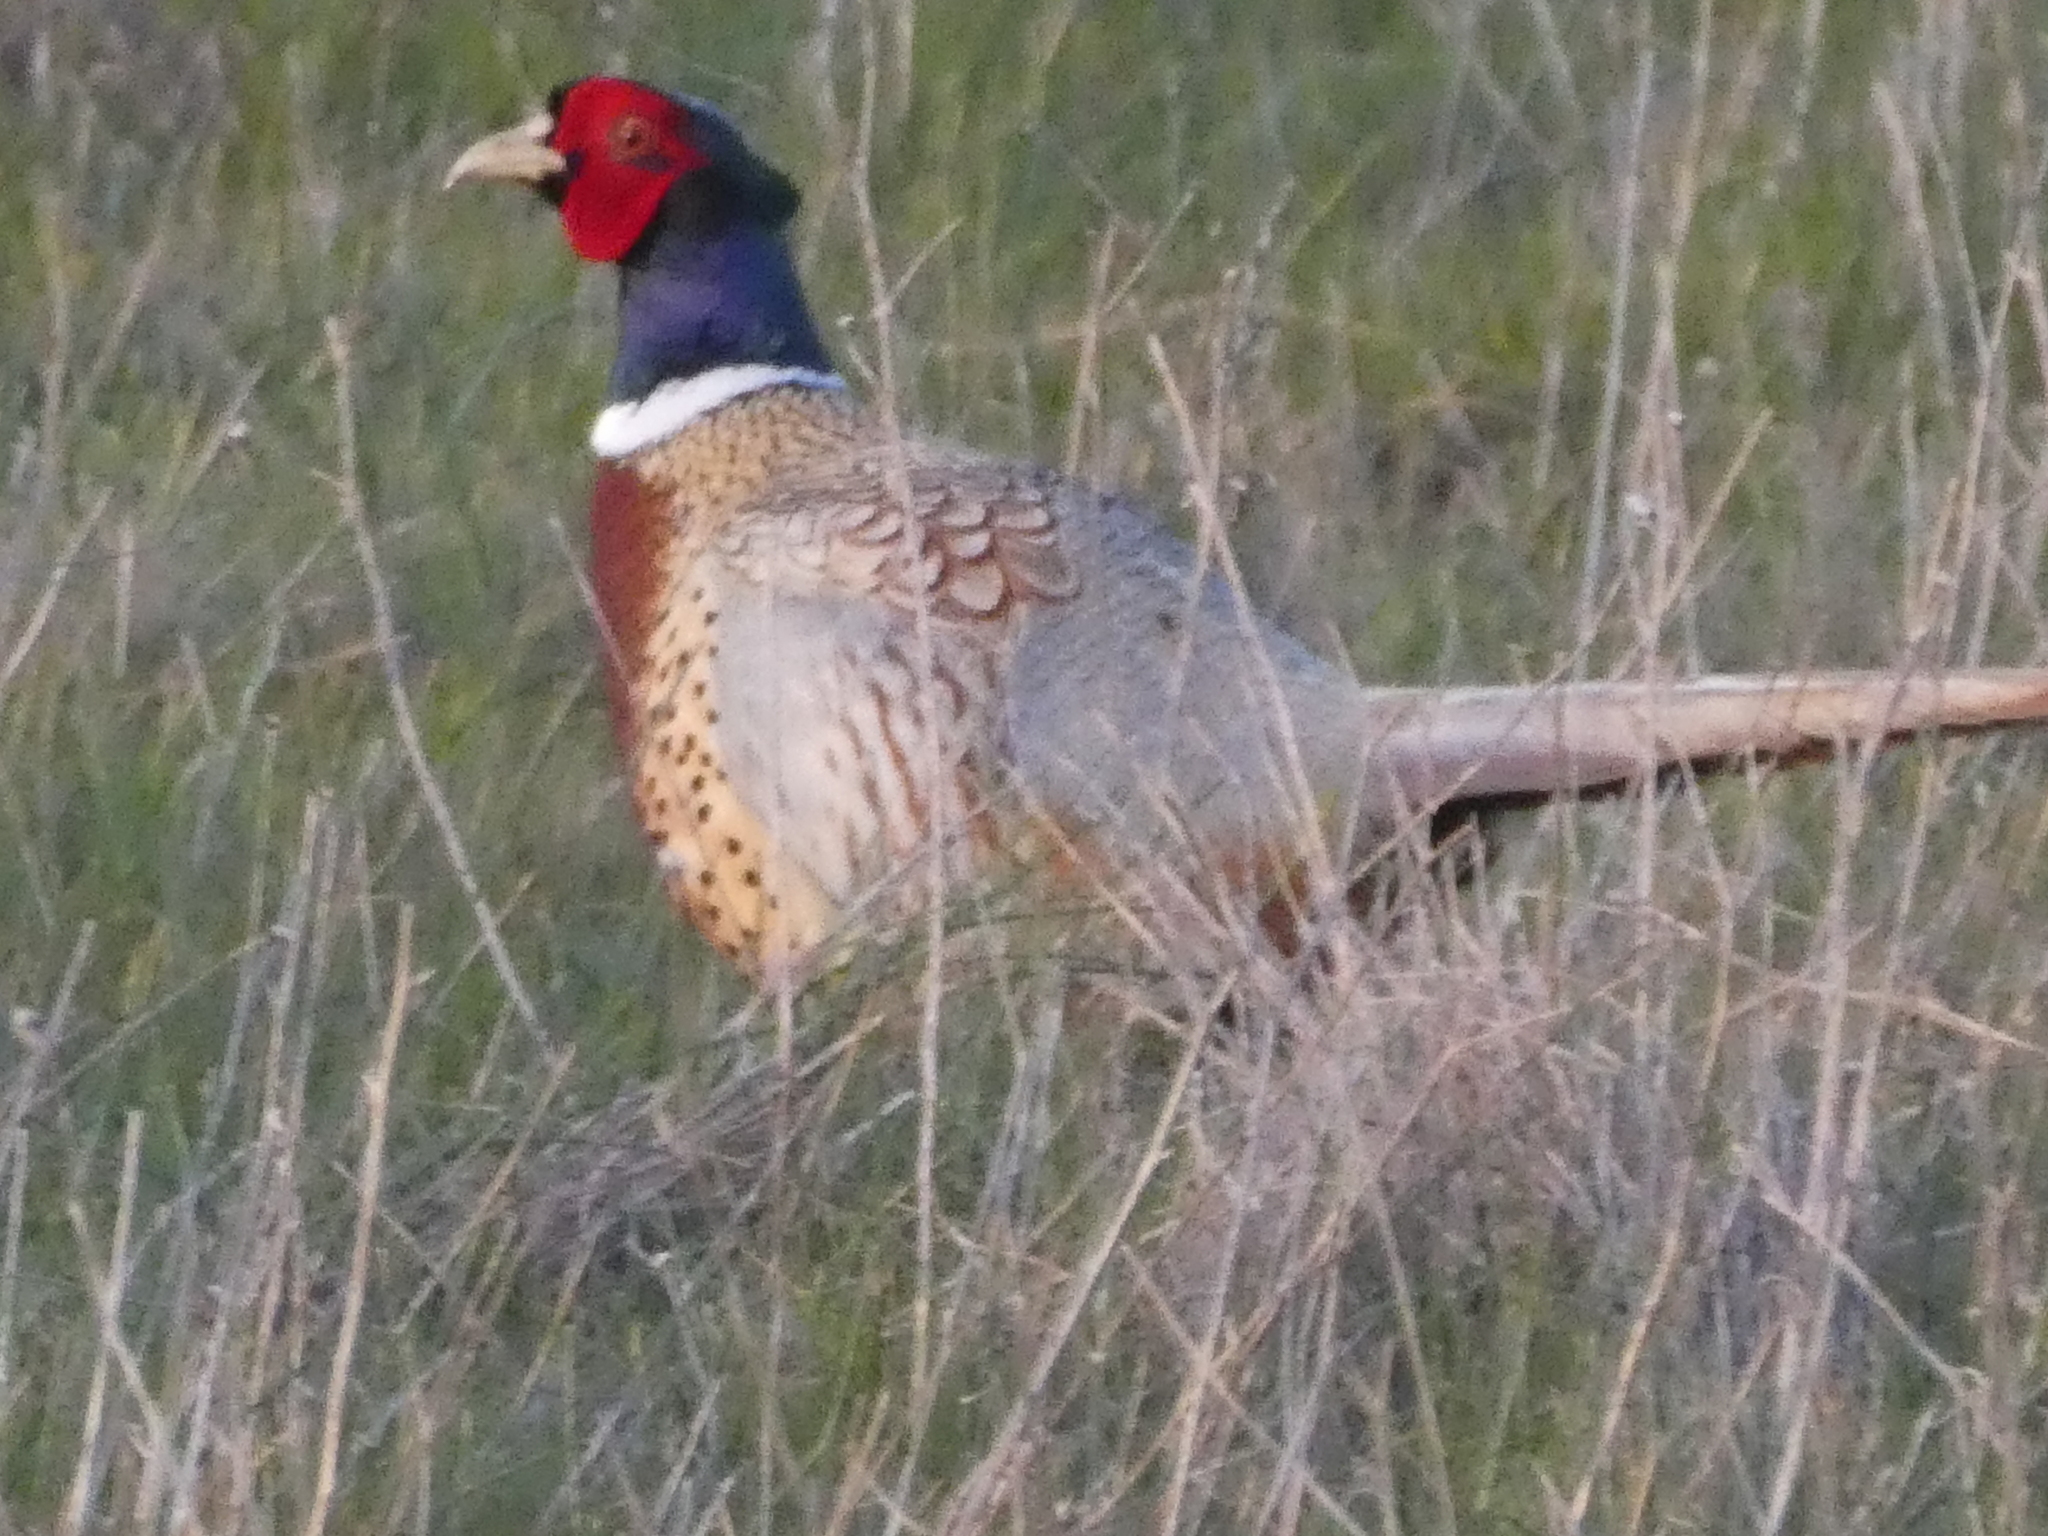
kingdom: Animalia
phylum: Chordata
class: Aves
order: Galliformes
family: Phasianidae
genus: Phasianus
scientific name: Phasianus colchicus
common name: Common pheasant
